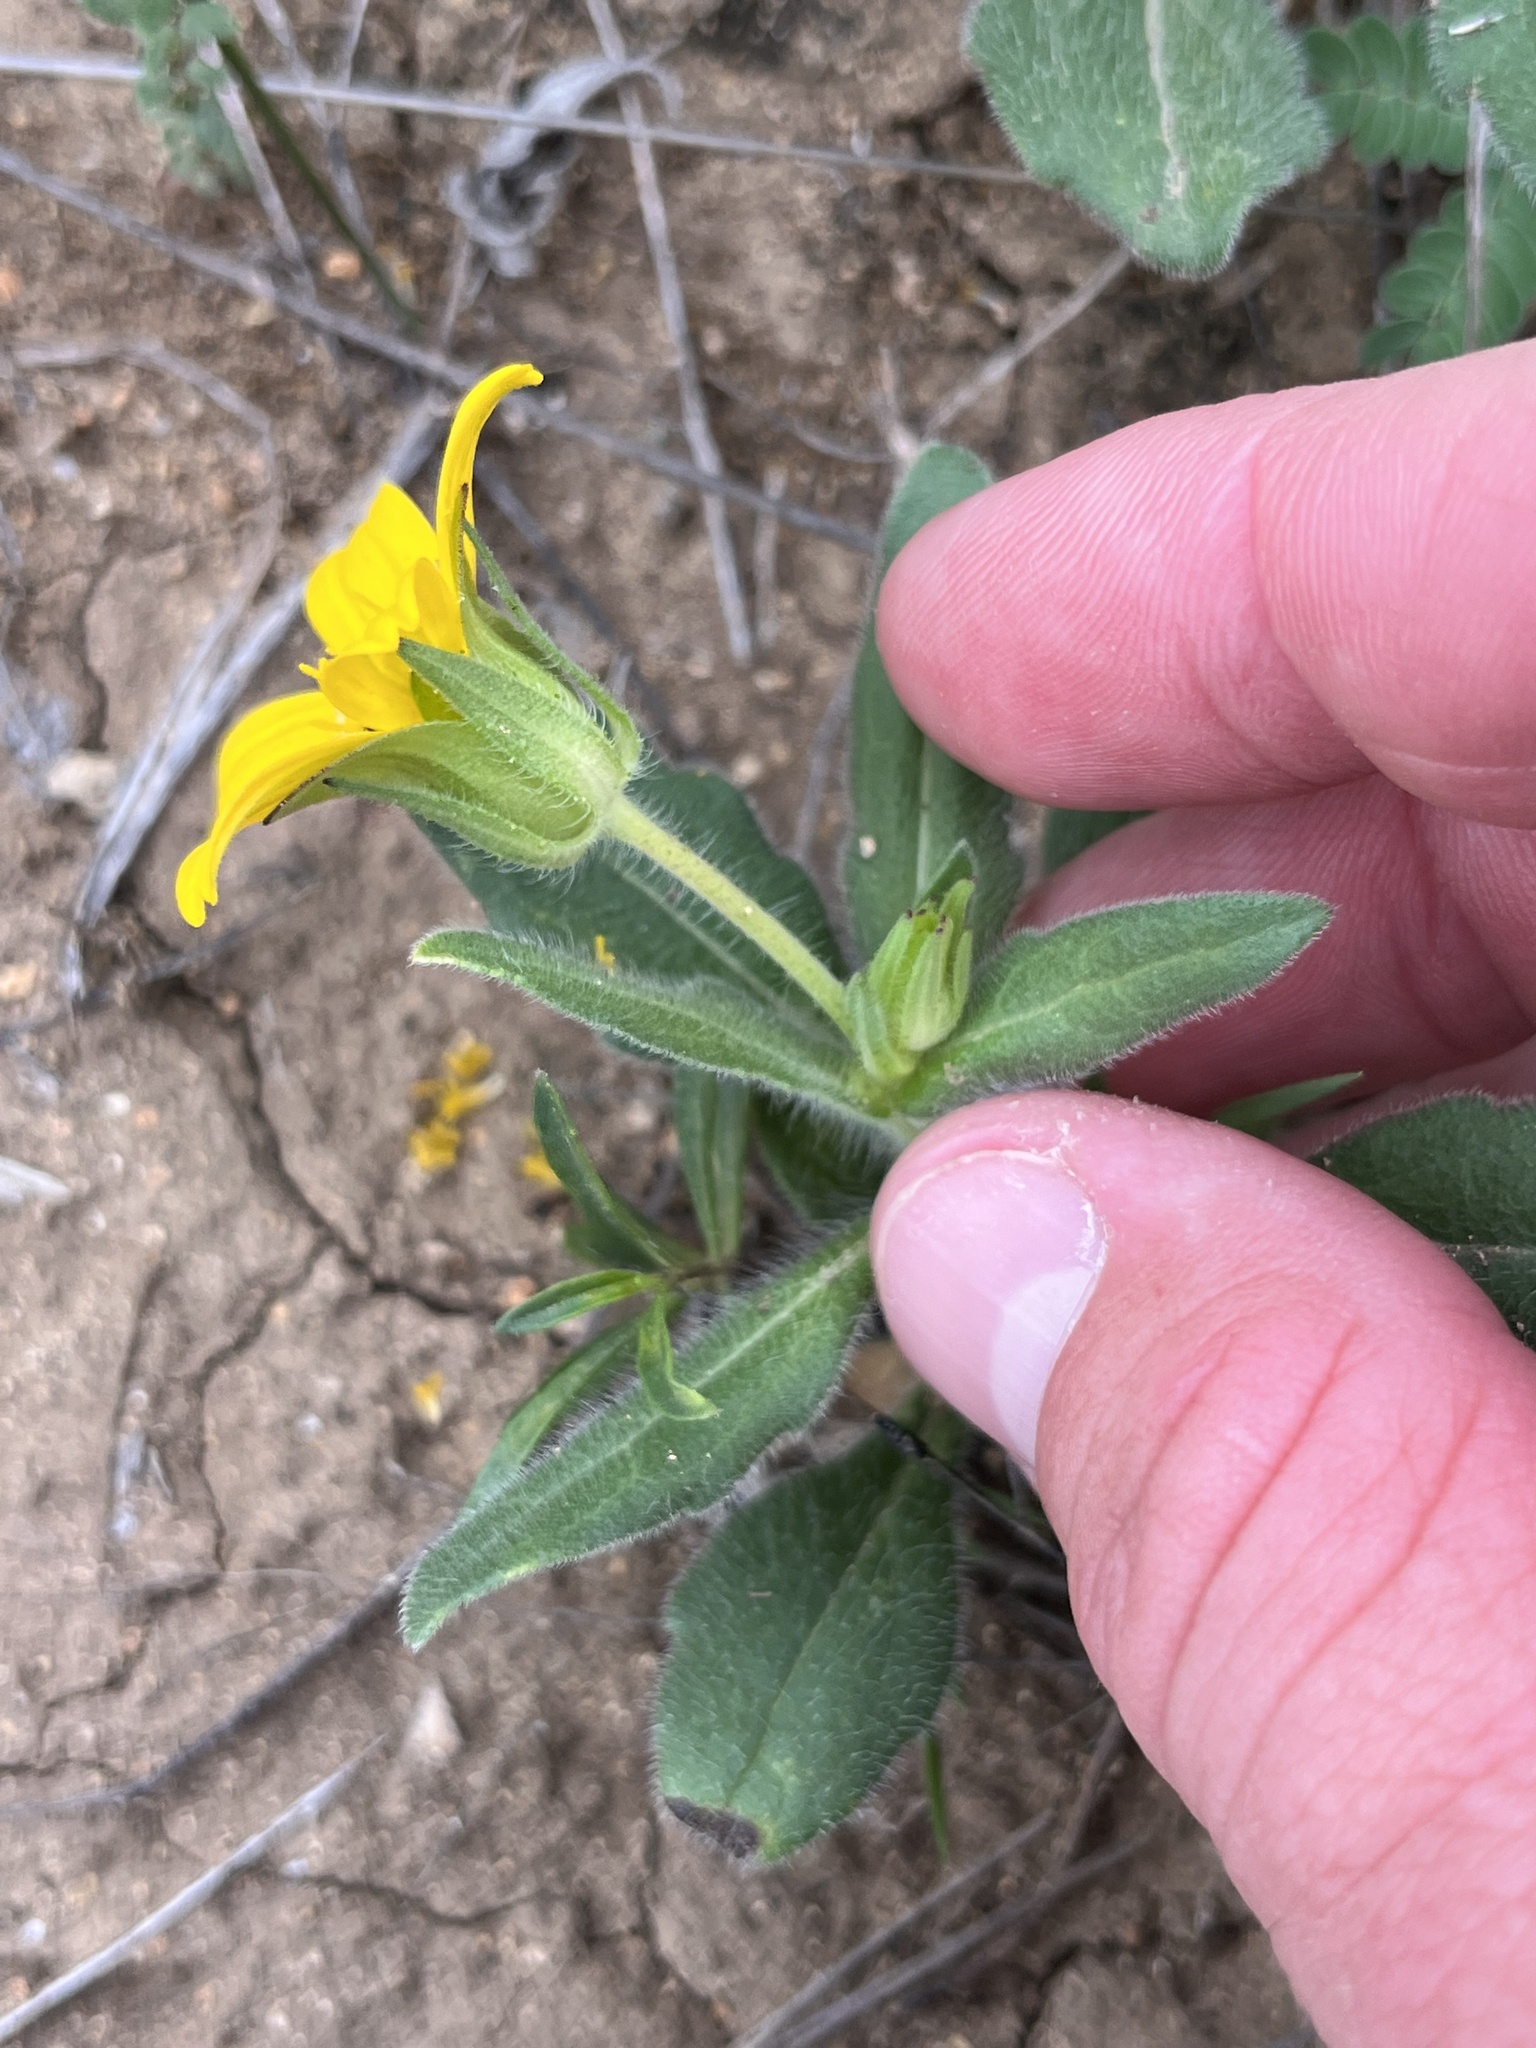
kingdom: Plantae
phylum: Tracheophyta
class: Magnoliopsida
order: Asterales
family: Asteraceae
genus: Lindheimera
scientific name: Lindheimera texana
